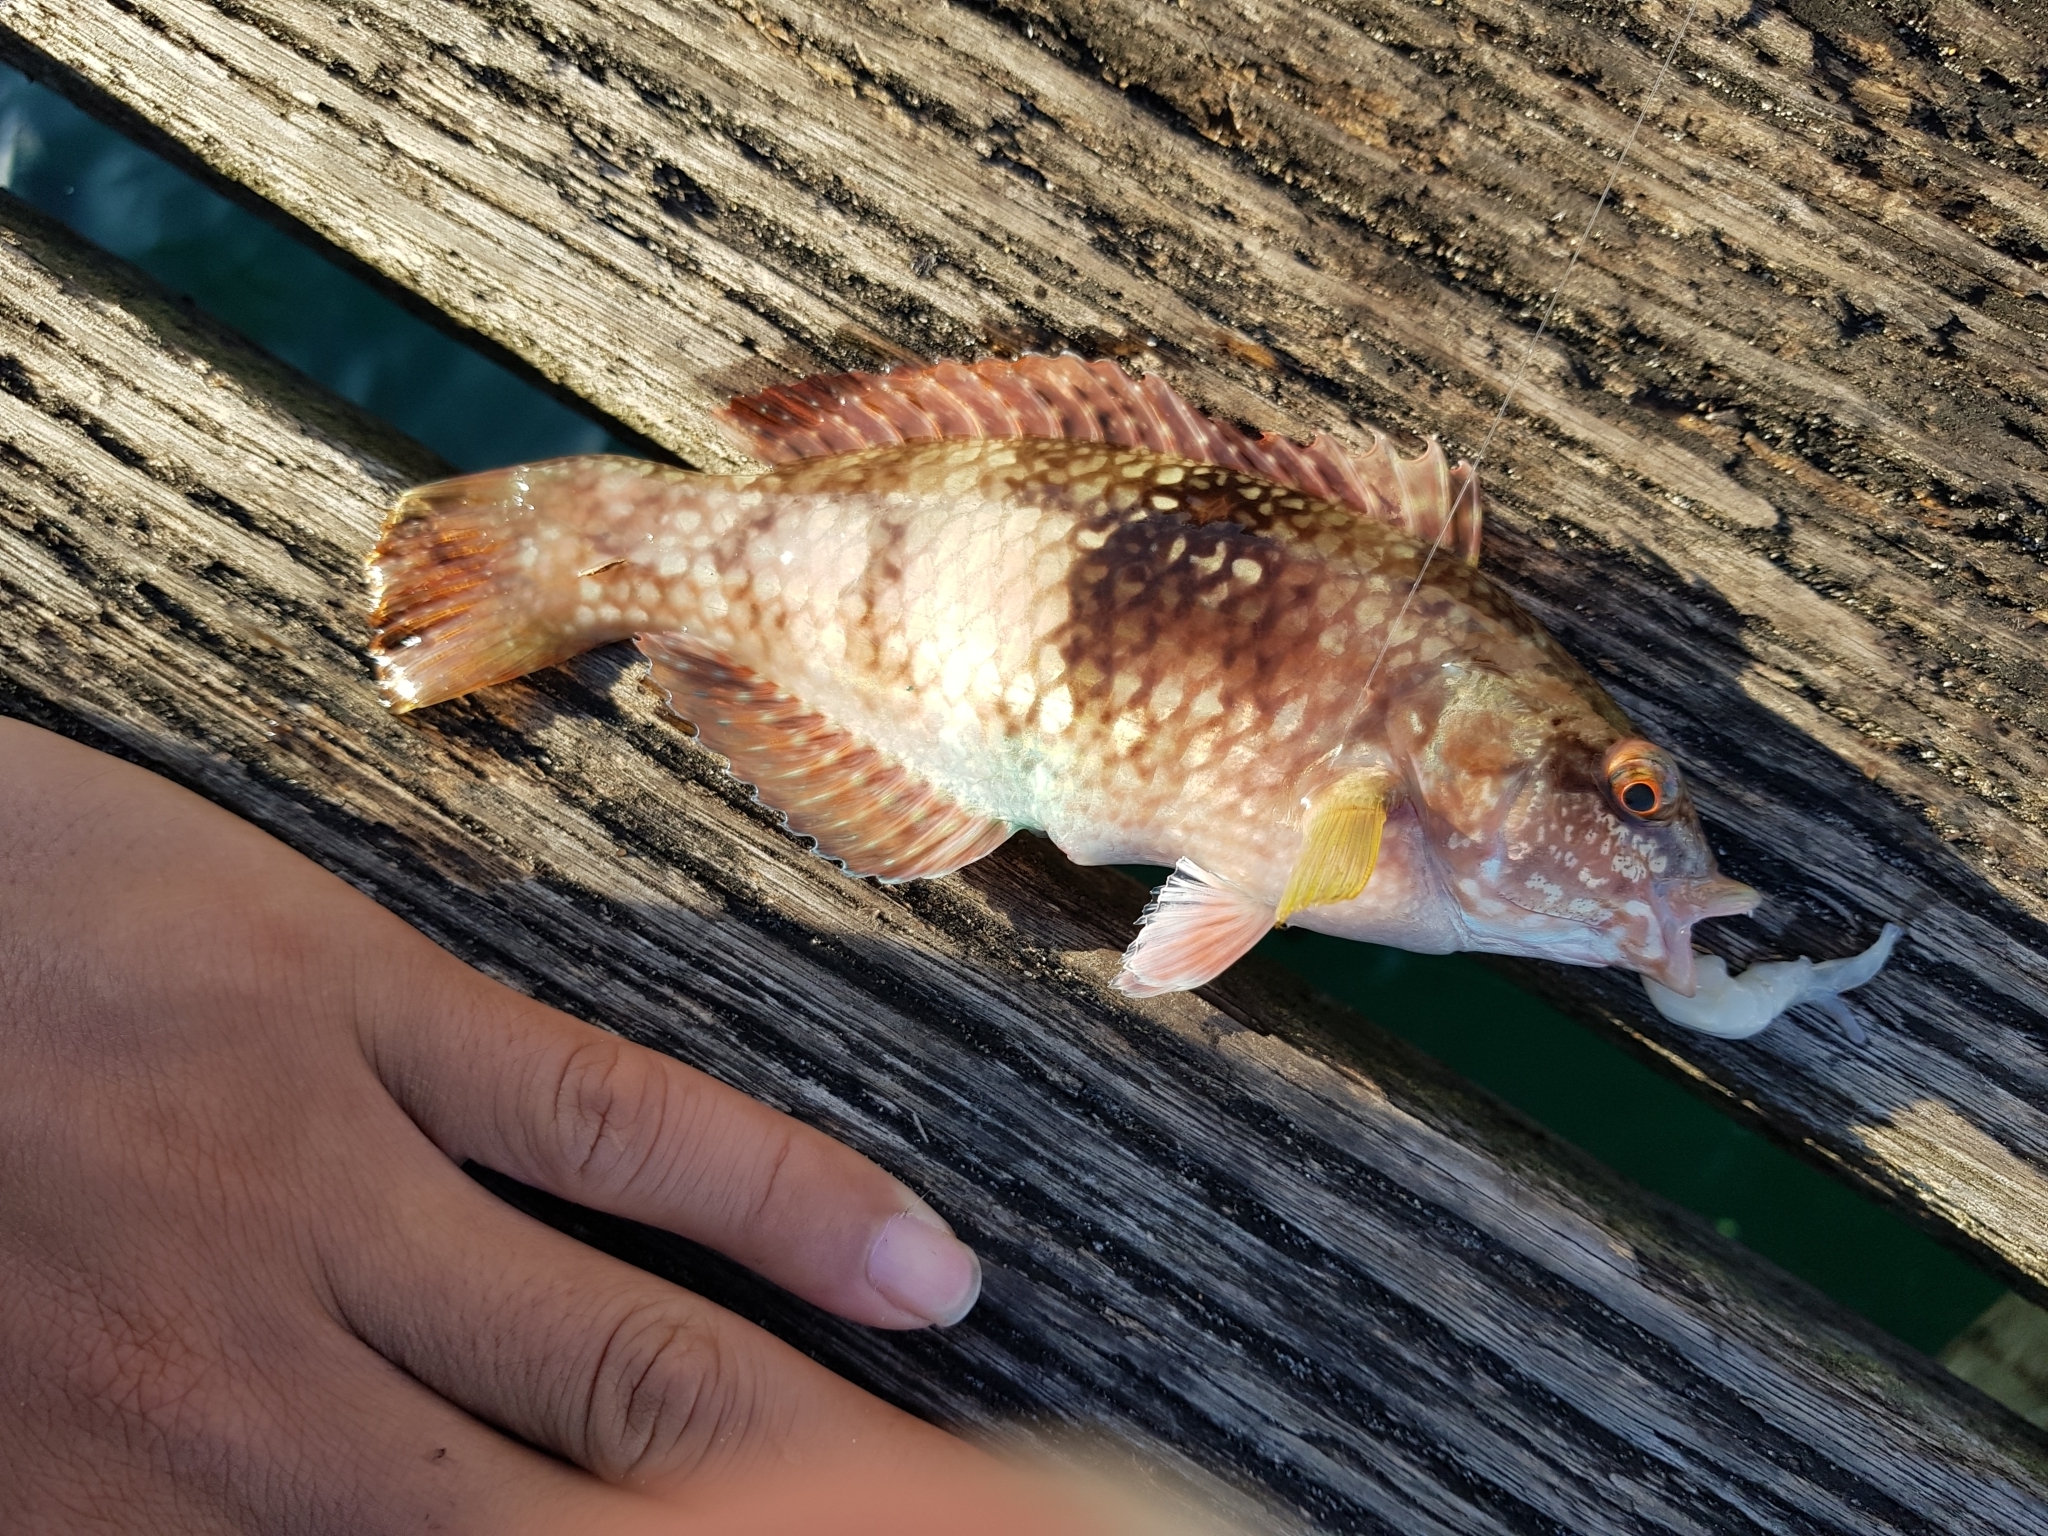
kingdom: Animalia
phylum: Chordata
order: Perciformes
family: Labridae
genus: Notolabrus
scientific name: Notolabrus tetricus
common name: Blue-throated parrotfish
